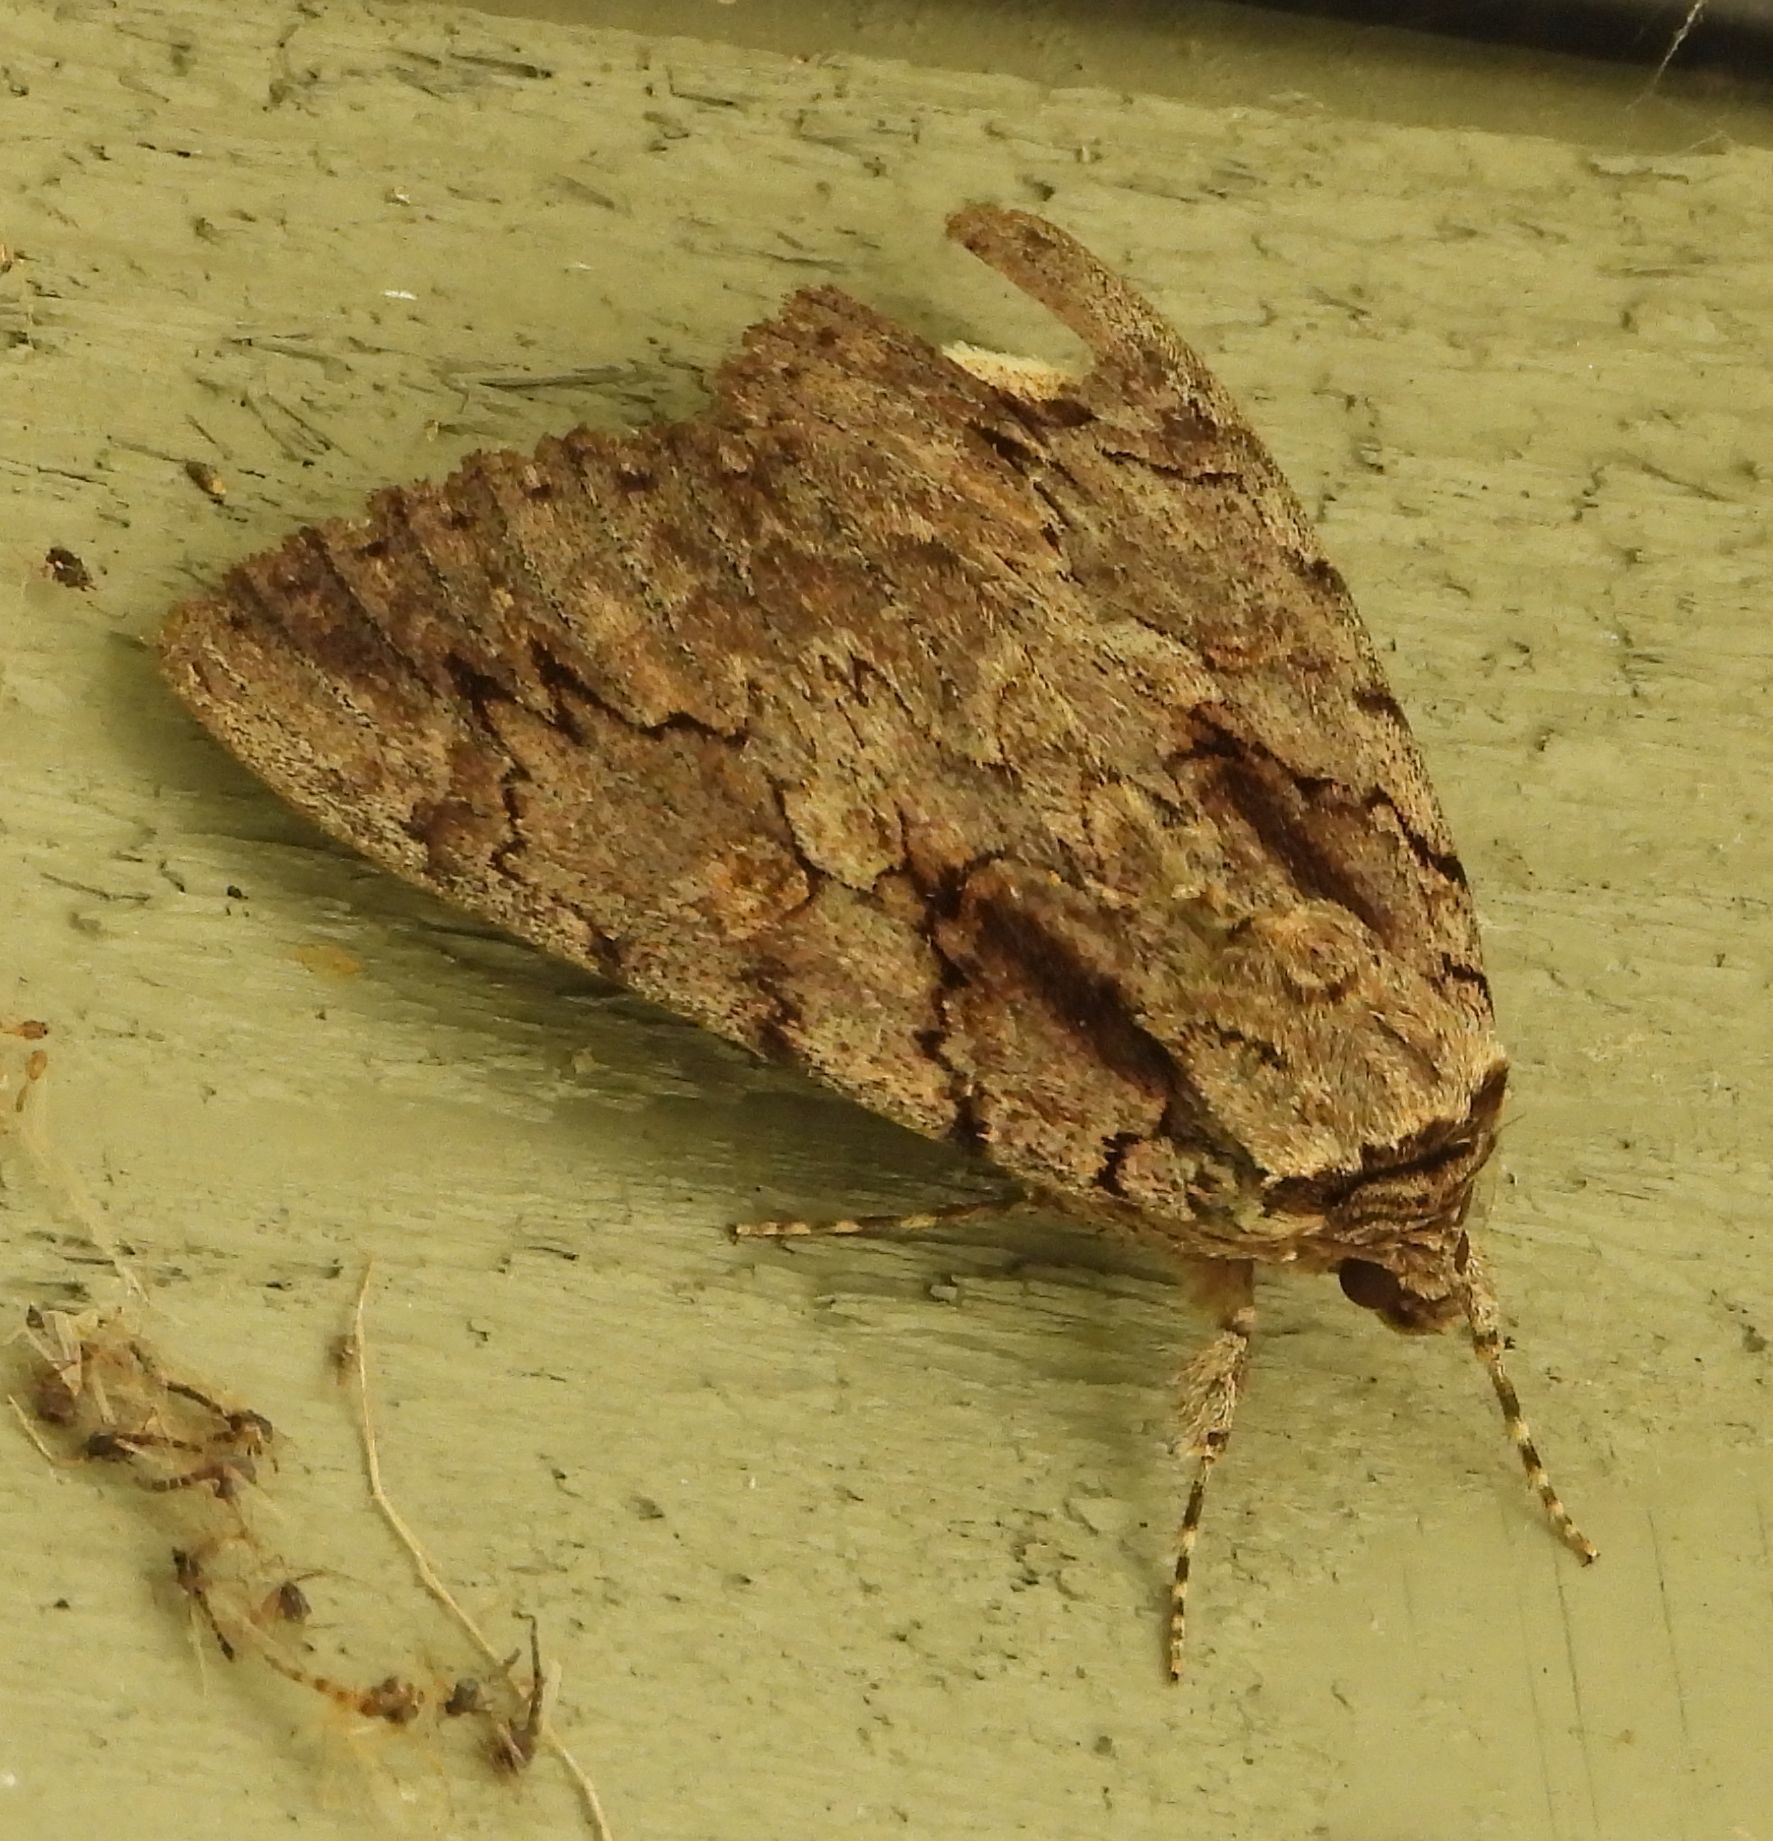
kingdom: Animalia
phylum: Arthropoda
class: Insecta
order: Lepidoptera
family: Erebidae
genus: Catocala
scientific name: Catocala amatrix
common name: Sweetheart underwing
